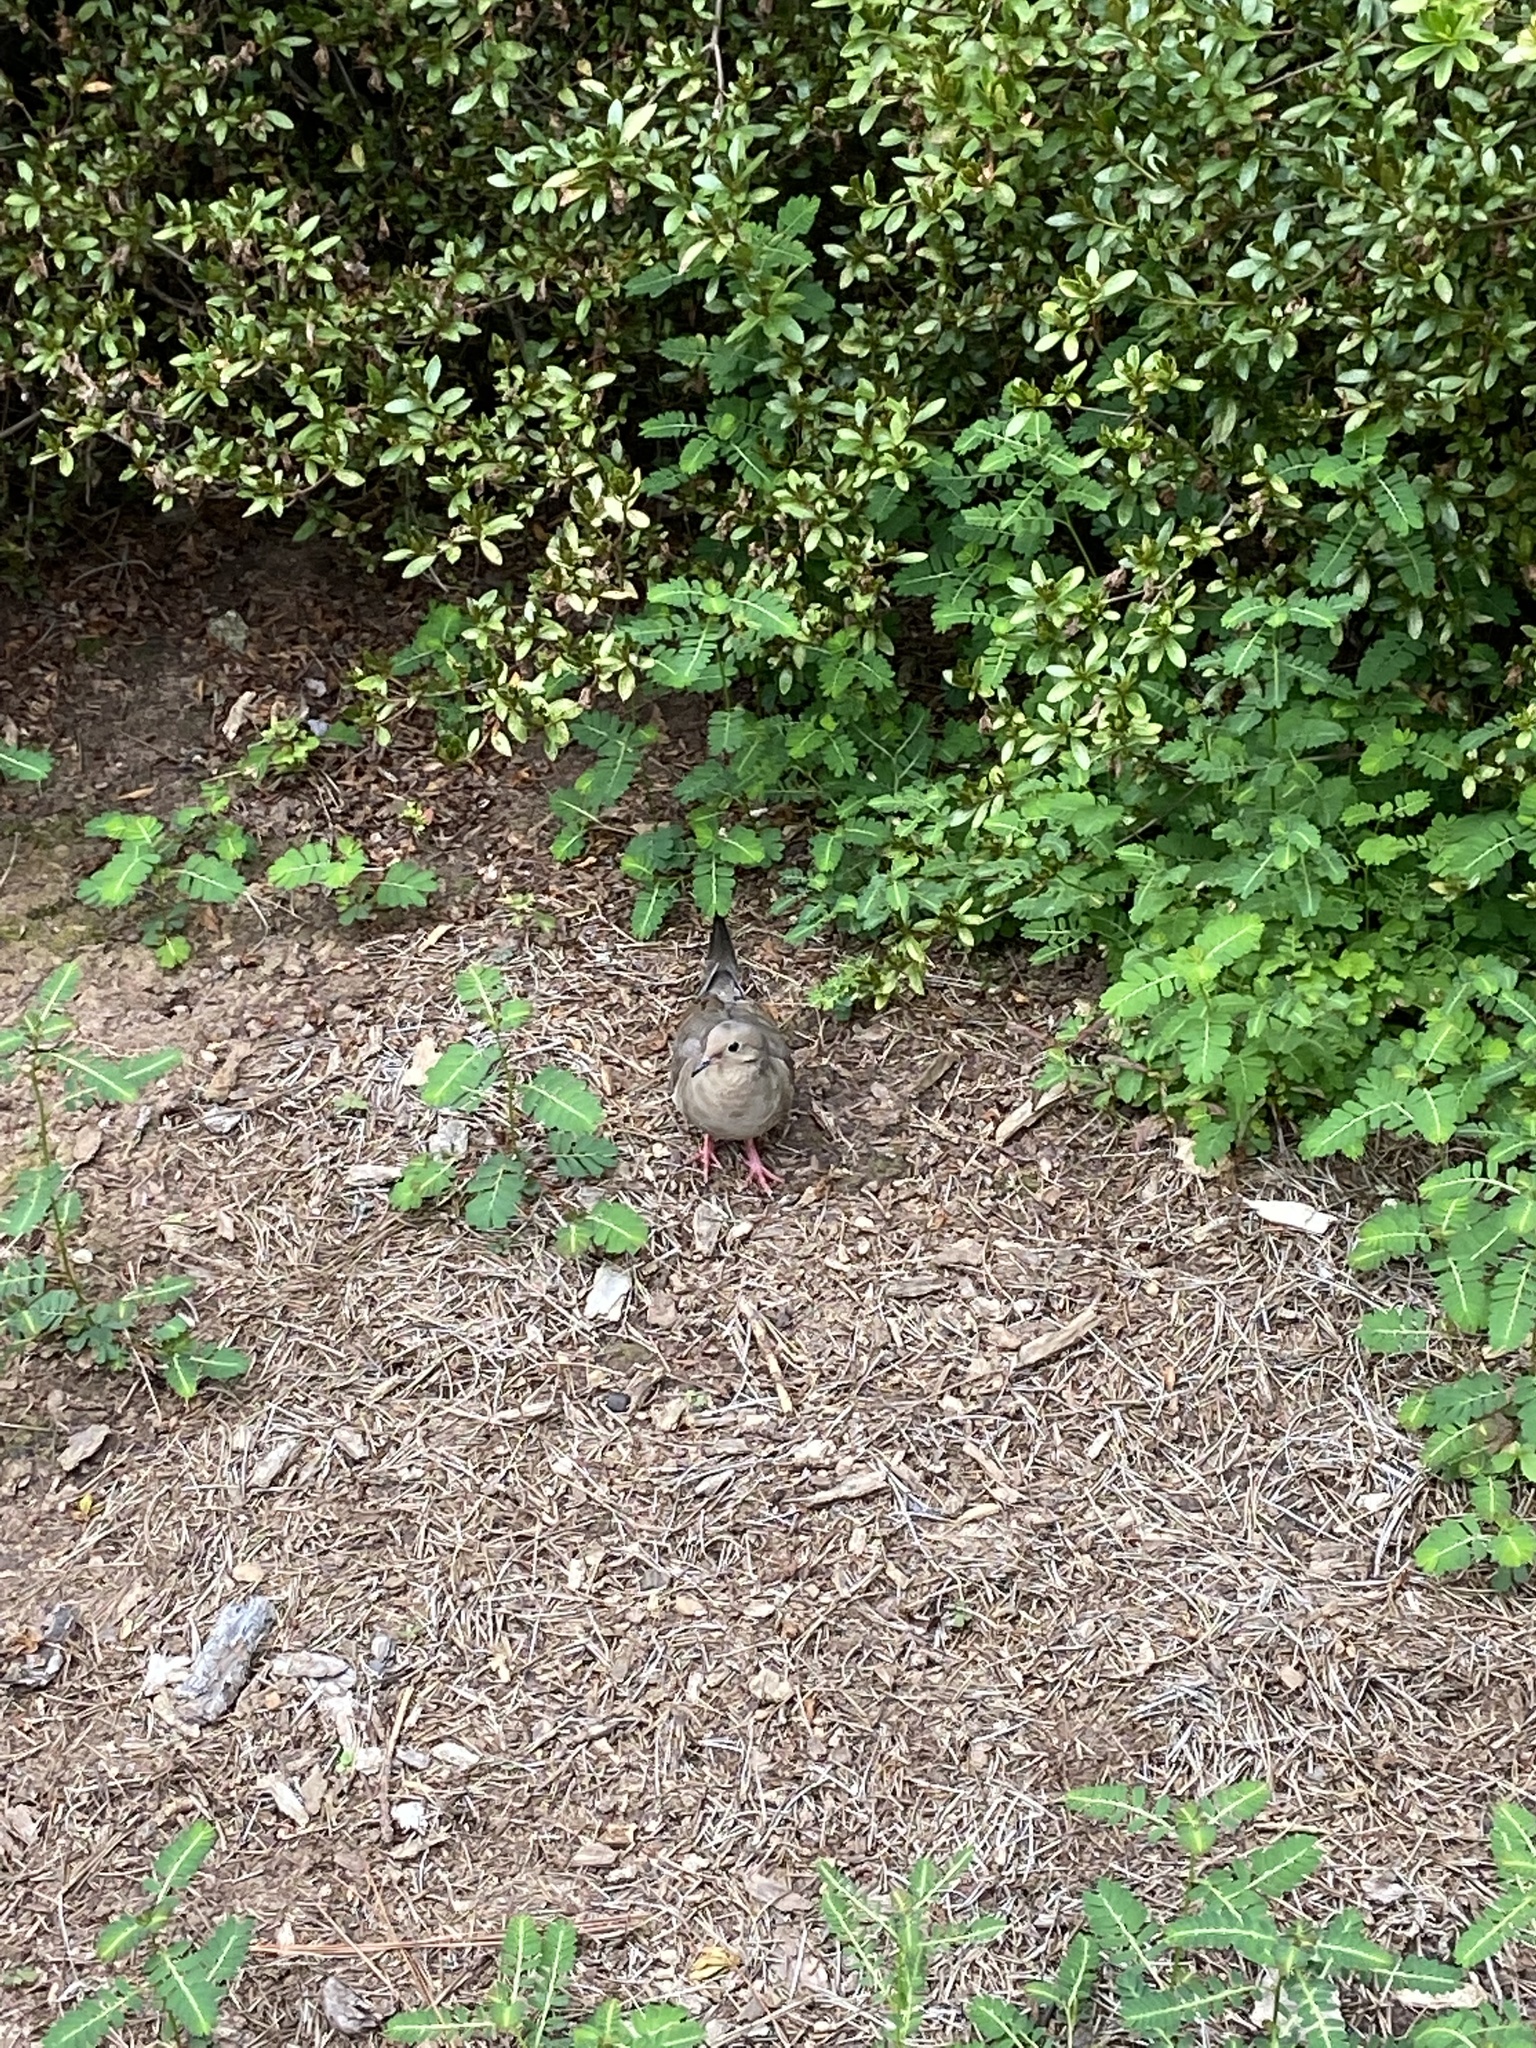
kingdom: Animalia
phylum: Chordata
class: Aves
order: Columbiformes
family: Columbidae
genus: Zenaida
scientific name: Zenaida macroura
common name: Mourning dove
